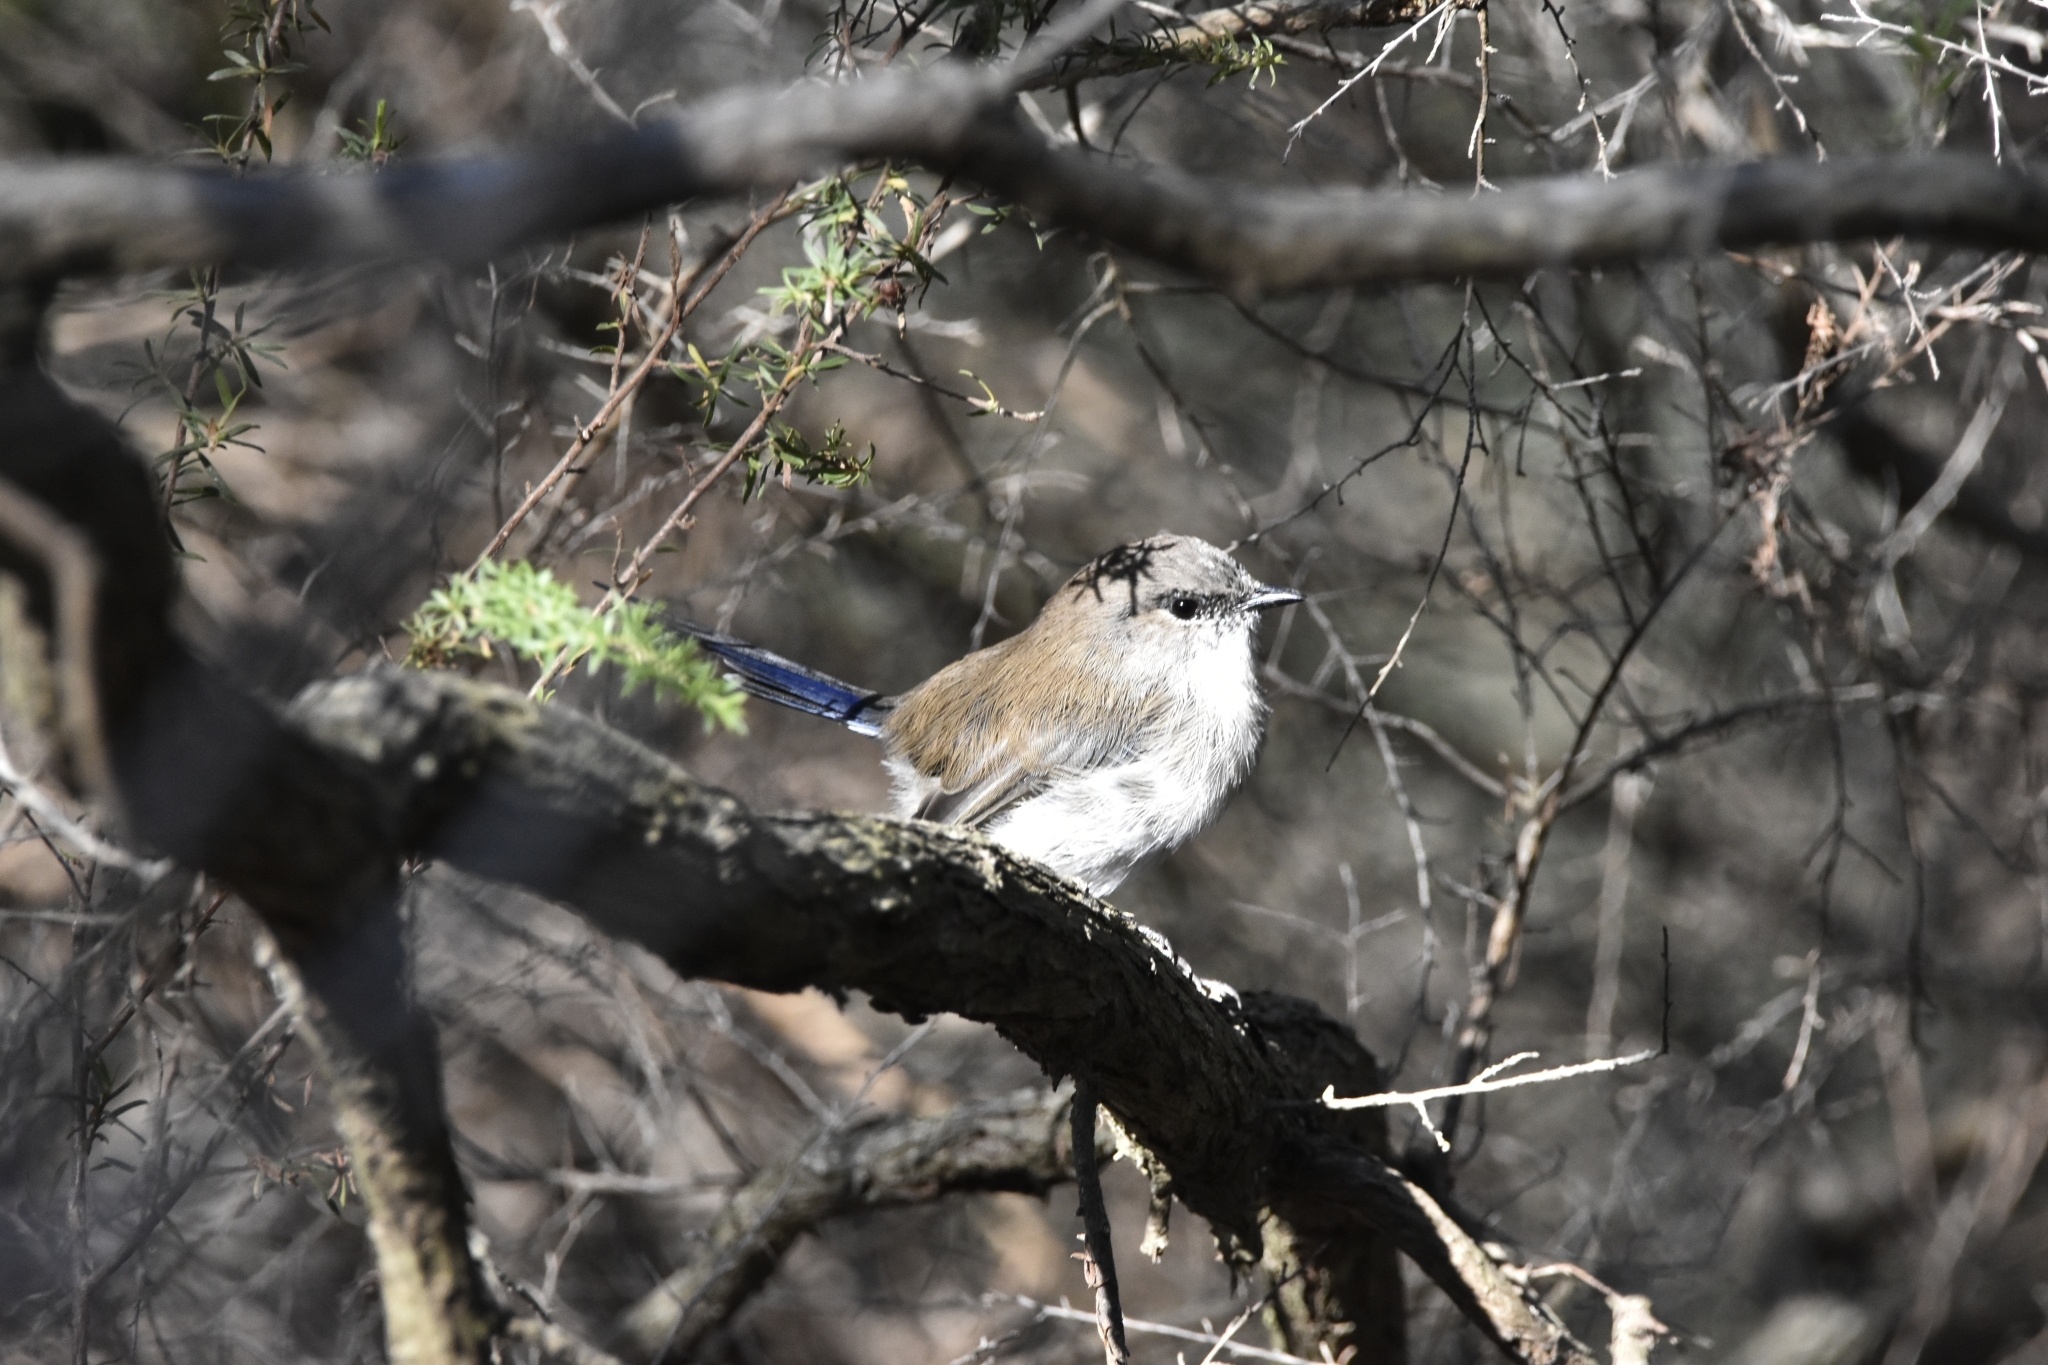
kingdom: Animalia
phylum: Chordata
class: Aves
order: Passeriformes
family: Maluridae
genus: Malurus
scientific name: Malurus cyaneus
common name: Superb fairywren
